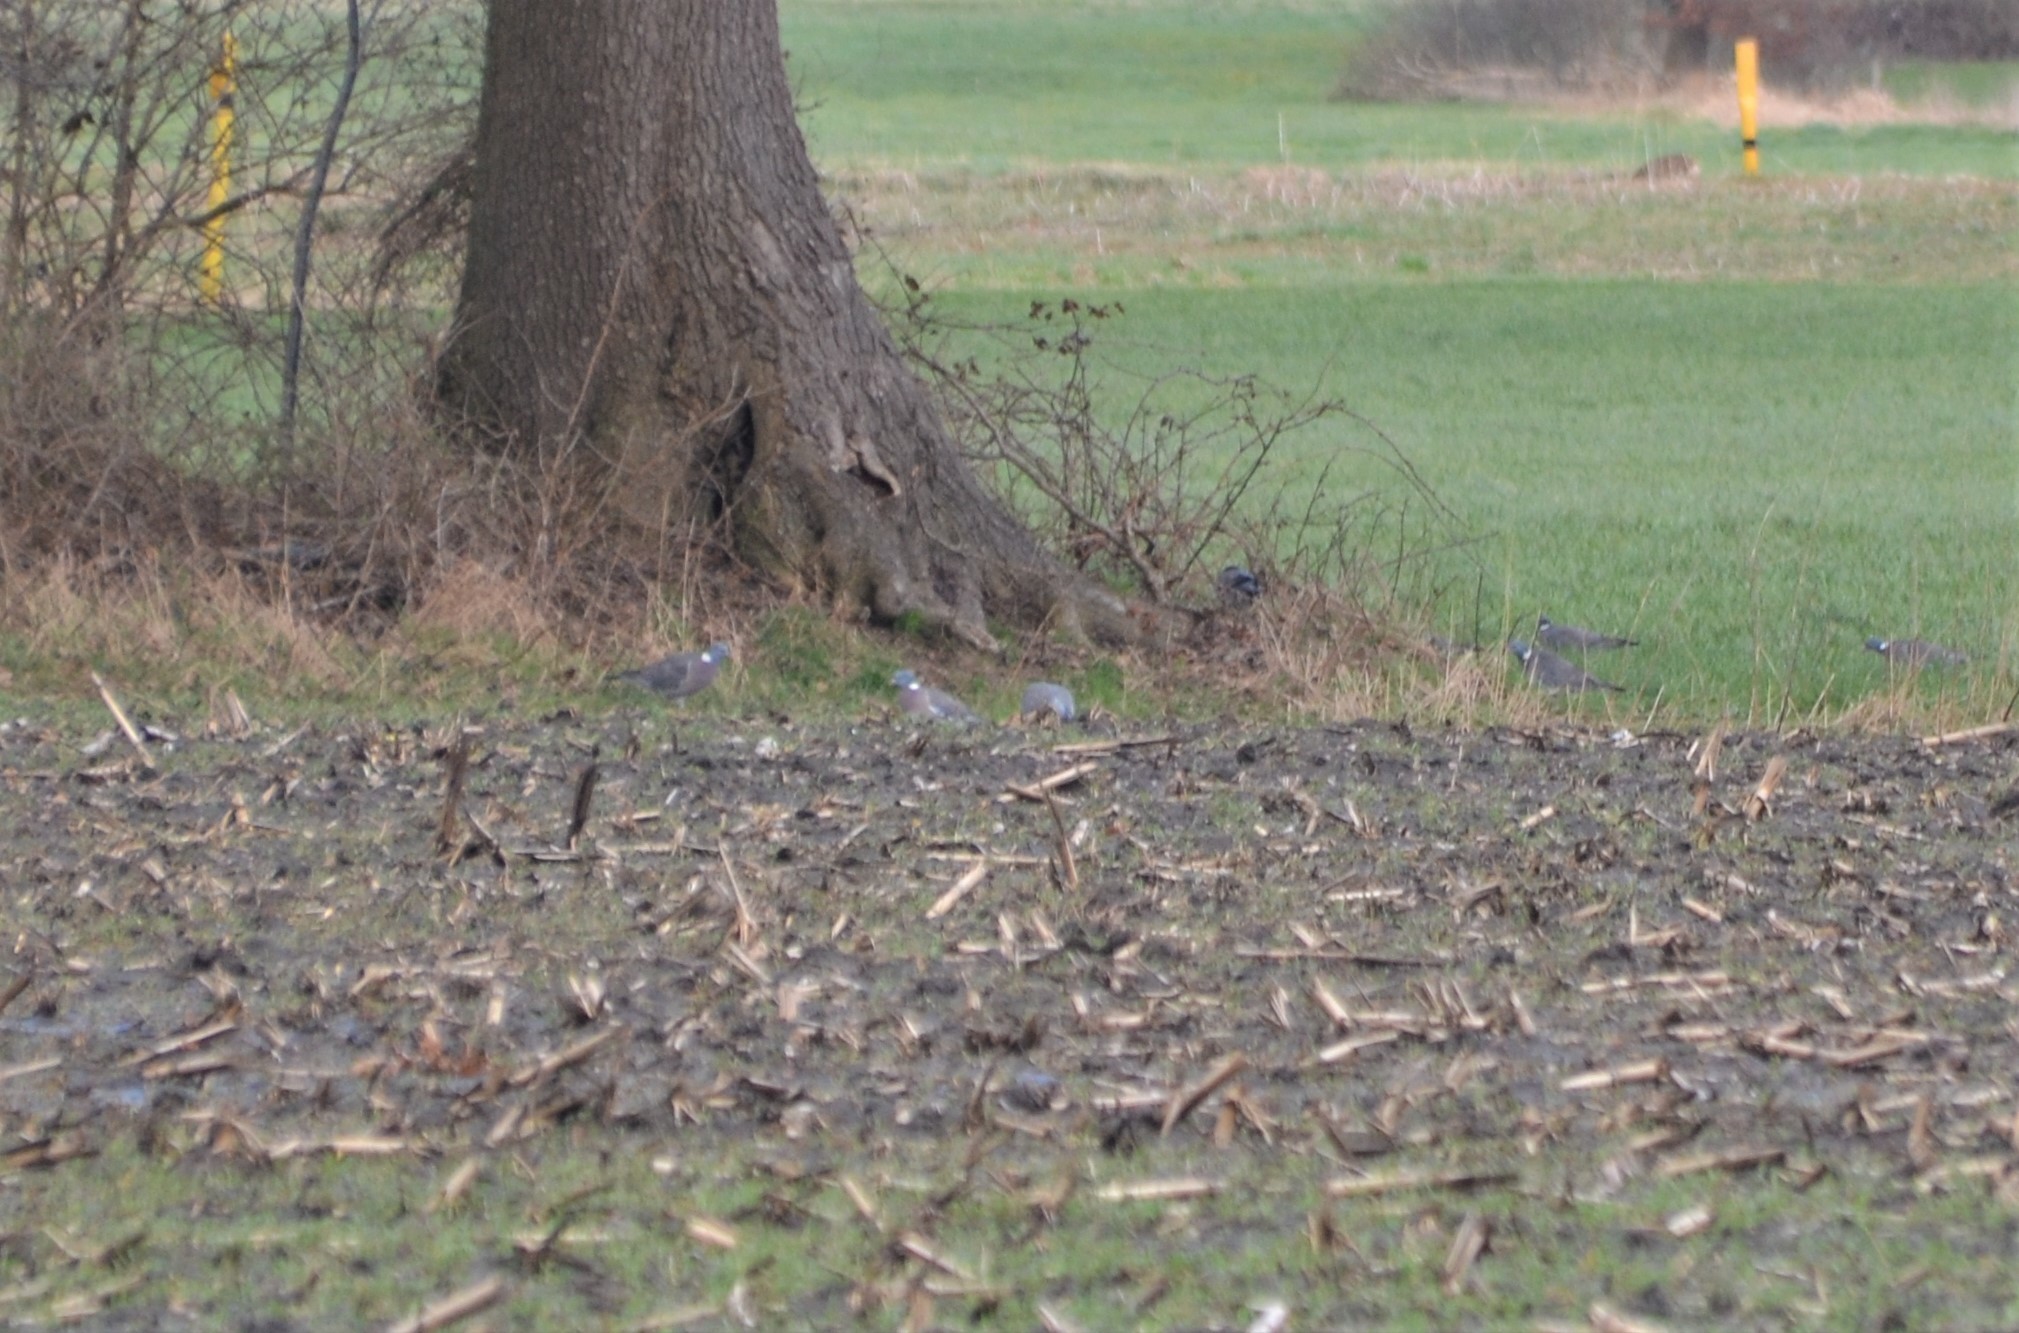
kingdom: Animalia
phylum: Chordata
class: Aves
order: Columbiformes
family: Columbidae
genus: Columba
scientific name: Columba palumbus
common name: Common wood pigeon
